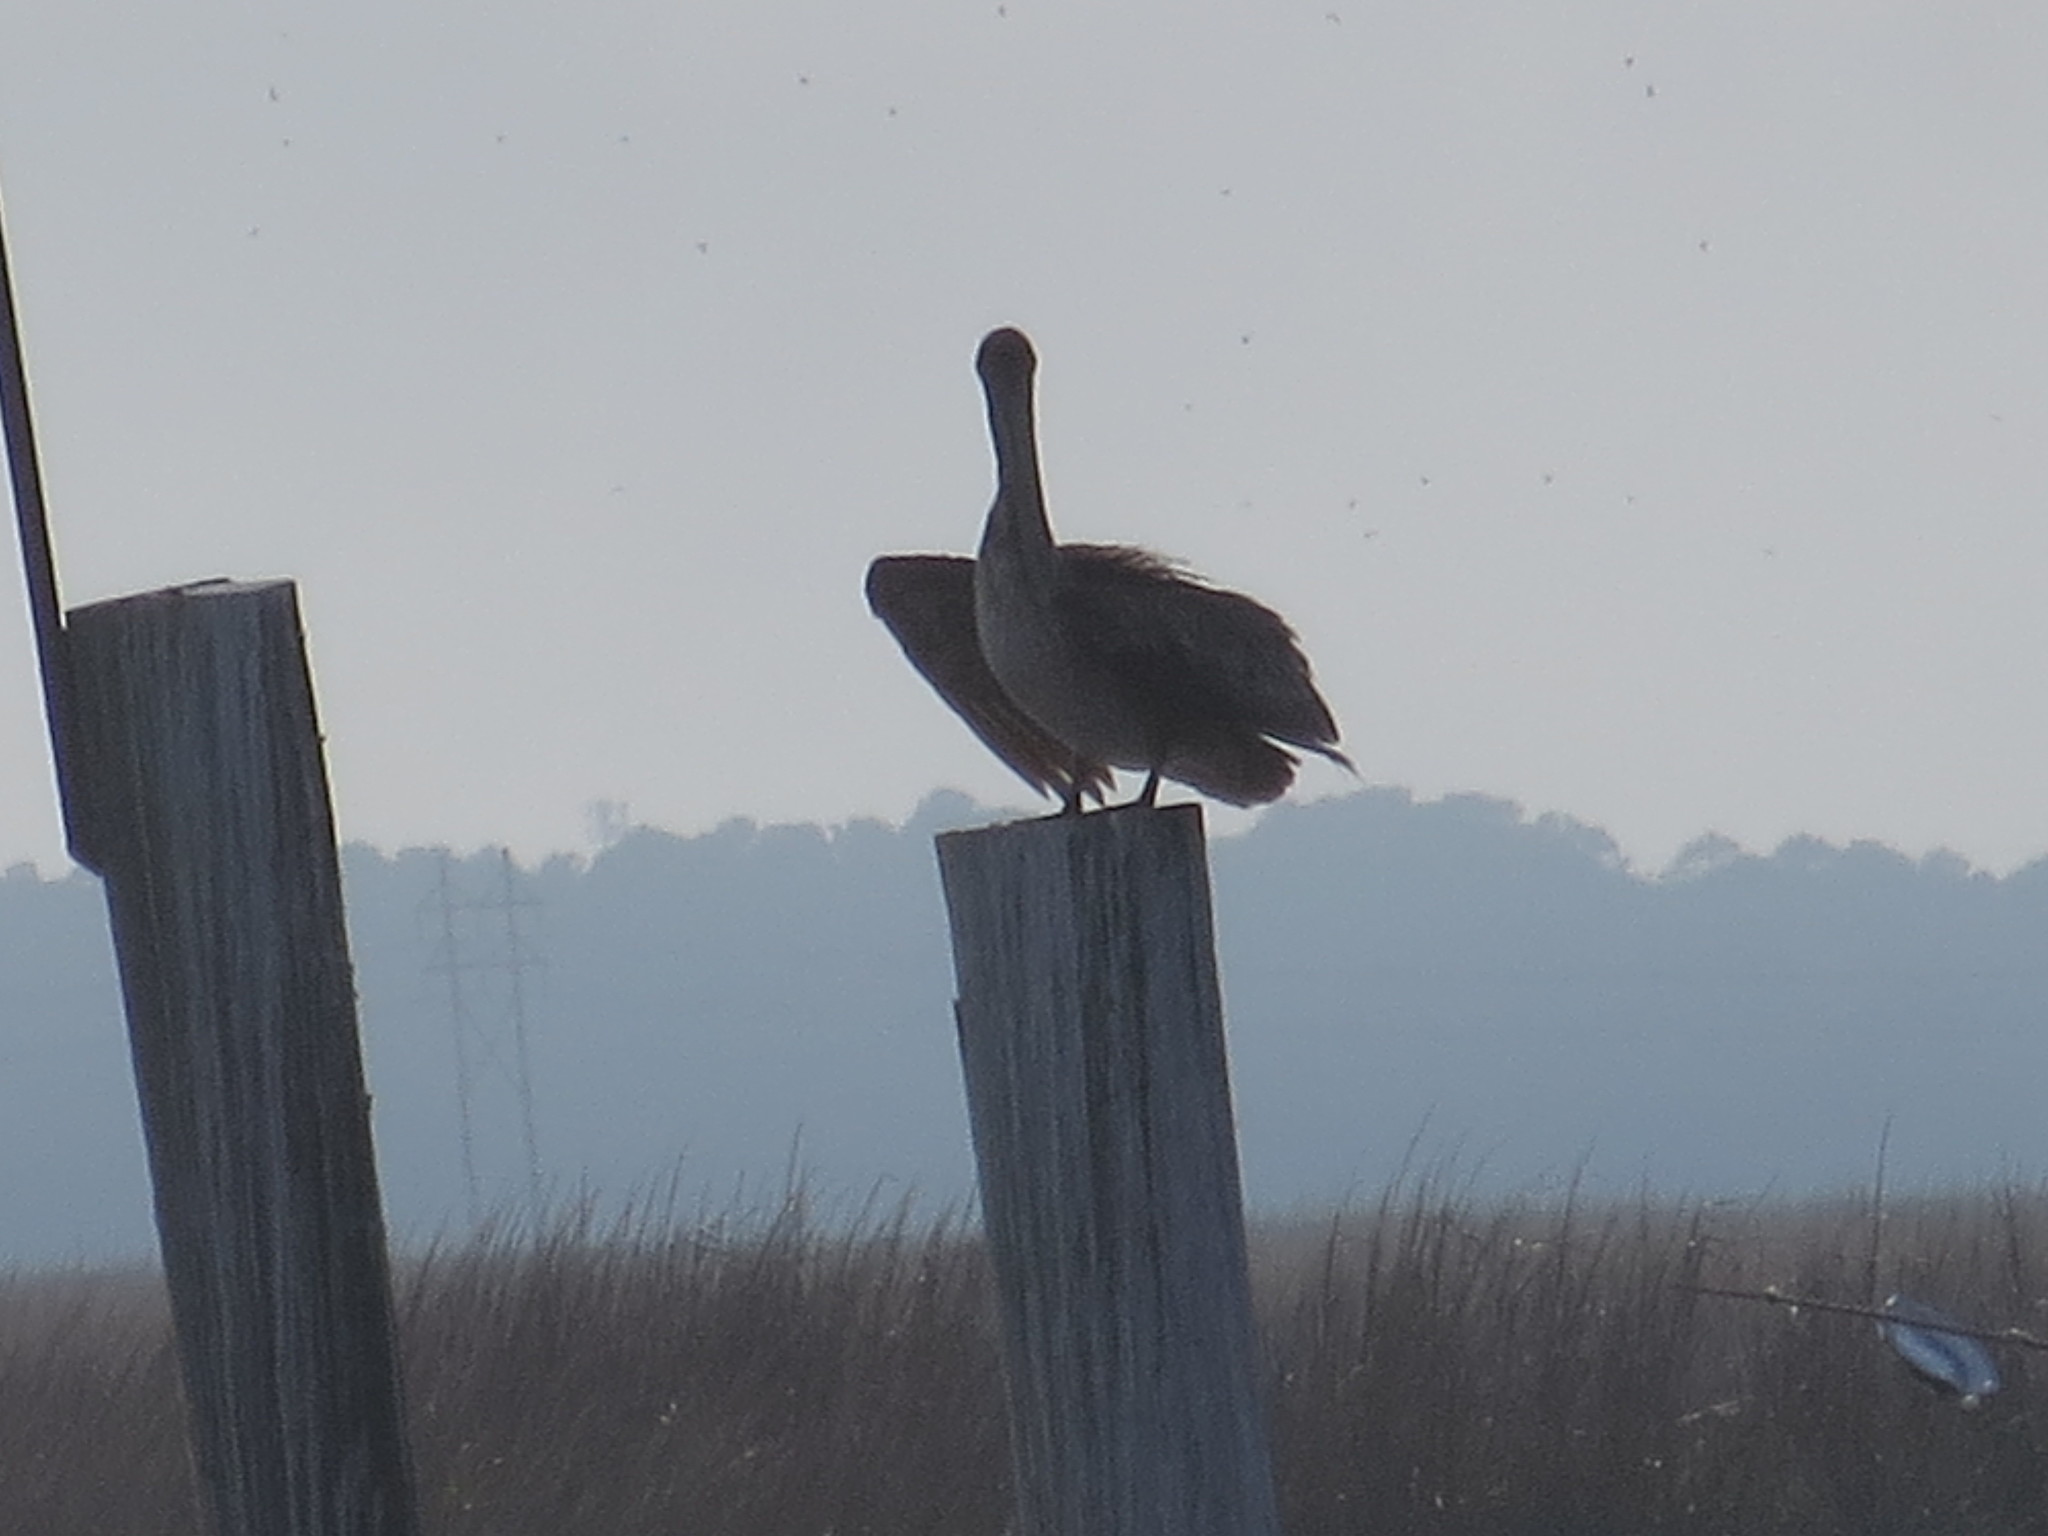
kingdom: Animalia
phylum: Chordata
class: Aves
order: Pelecaniformes
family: Pelecanidae
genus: Pelecanus
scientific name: Pelecanus occidentalis
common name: Brown pelican
